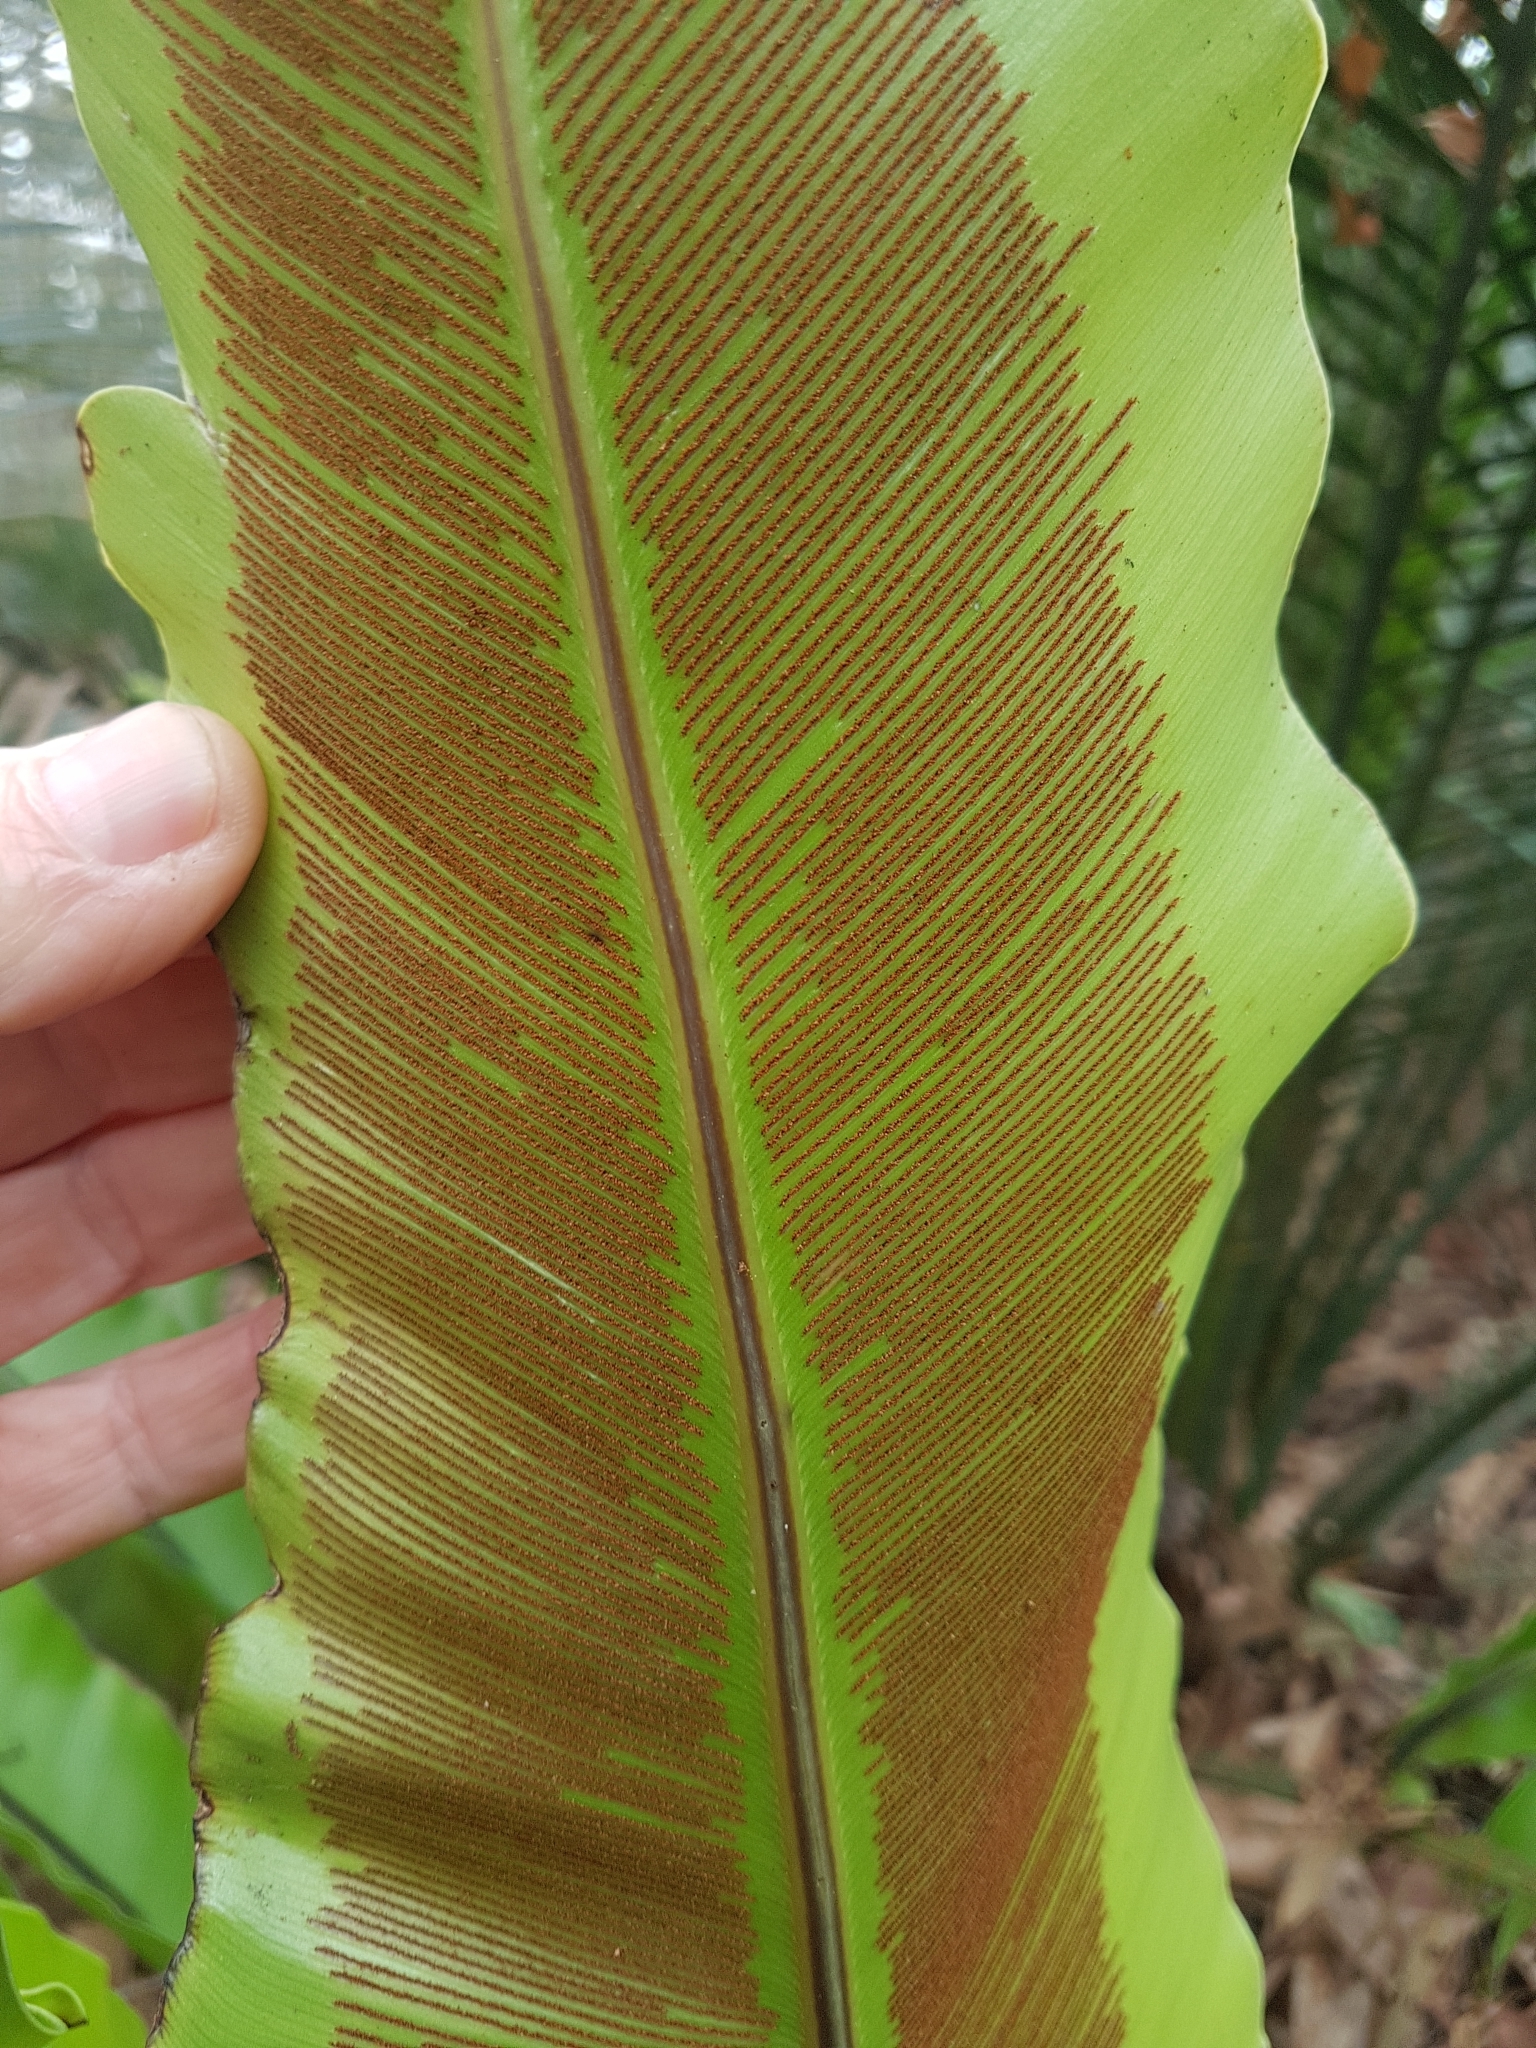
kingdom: Plantae
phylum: Tracheophyta
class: Polypodiopsida
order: Polypodiales
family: Aspleniaceae
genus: Asplenium
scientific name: Asplenium australasicum
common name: Bird's-nest fern
